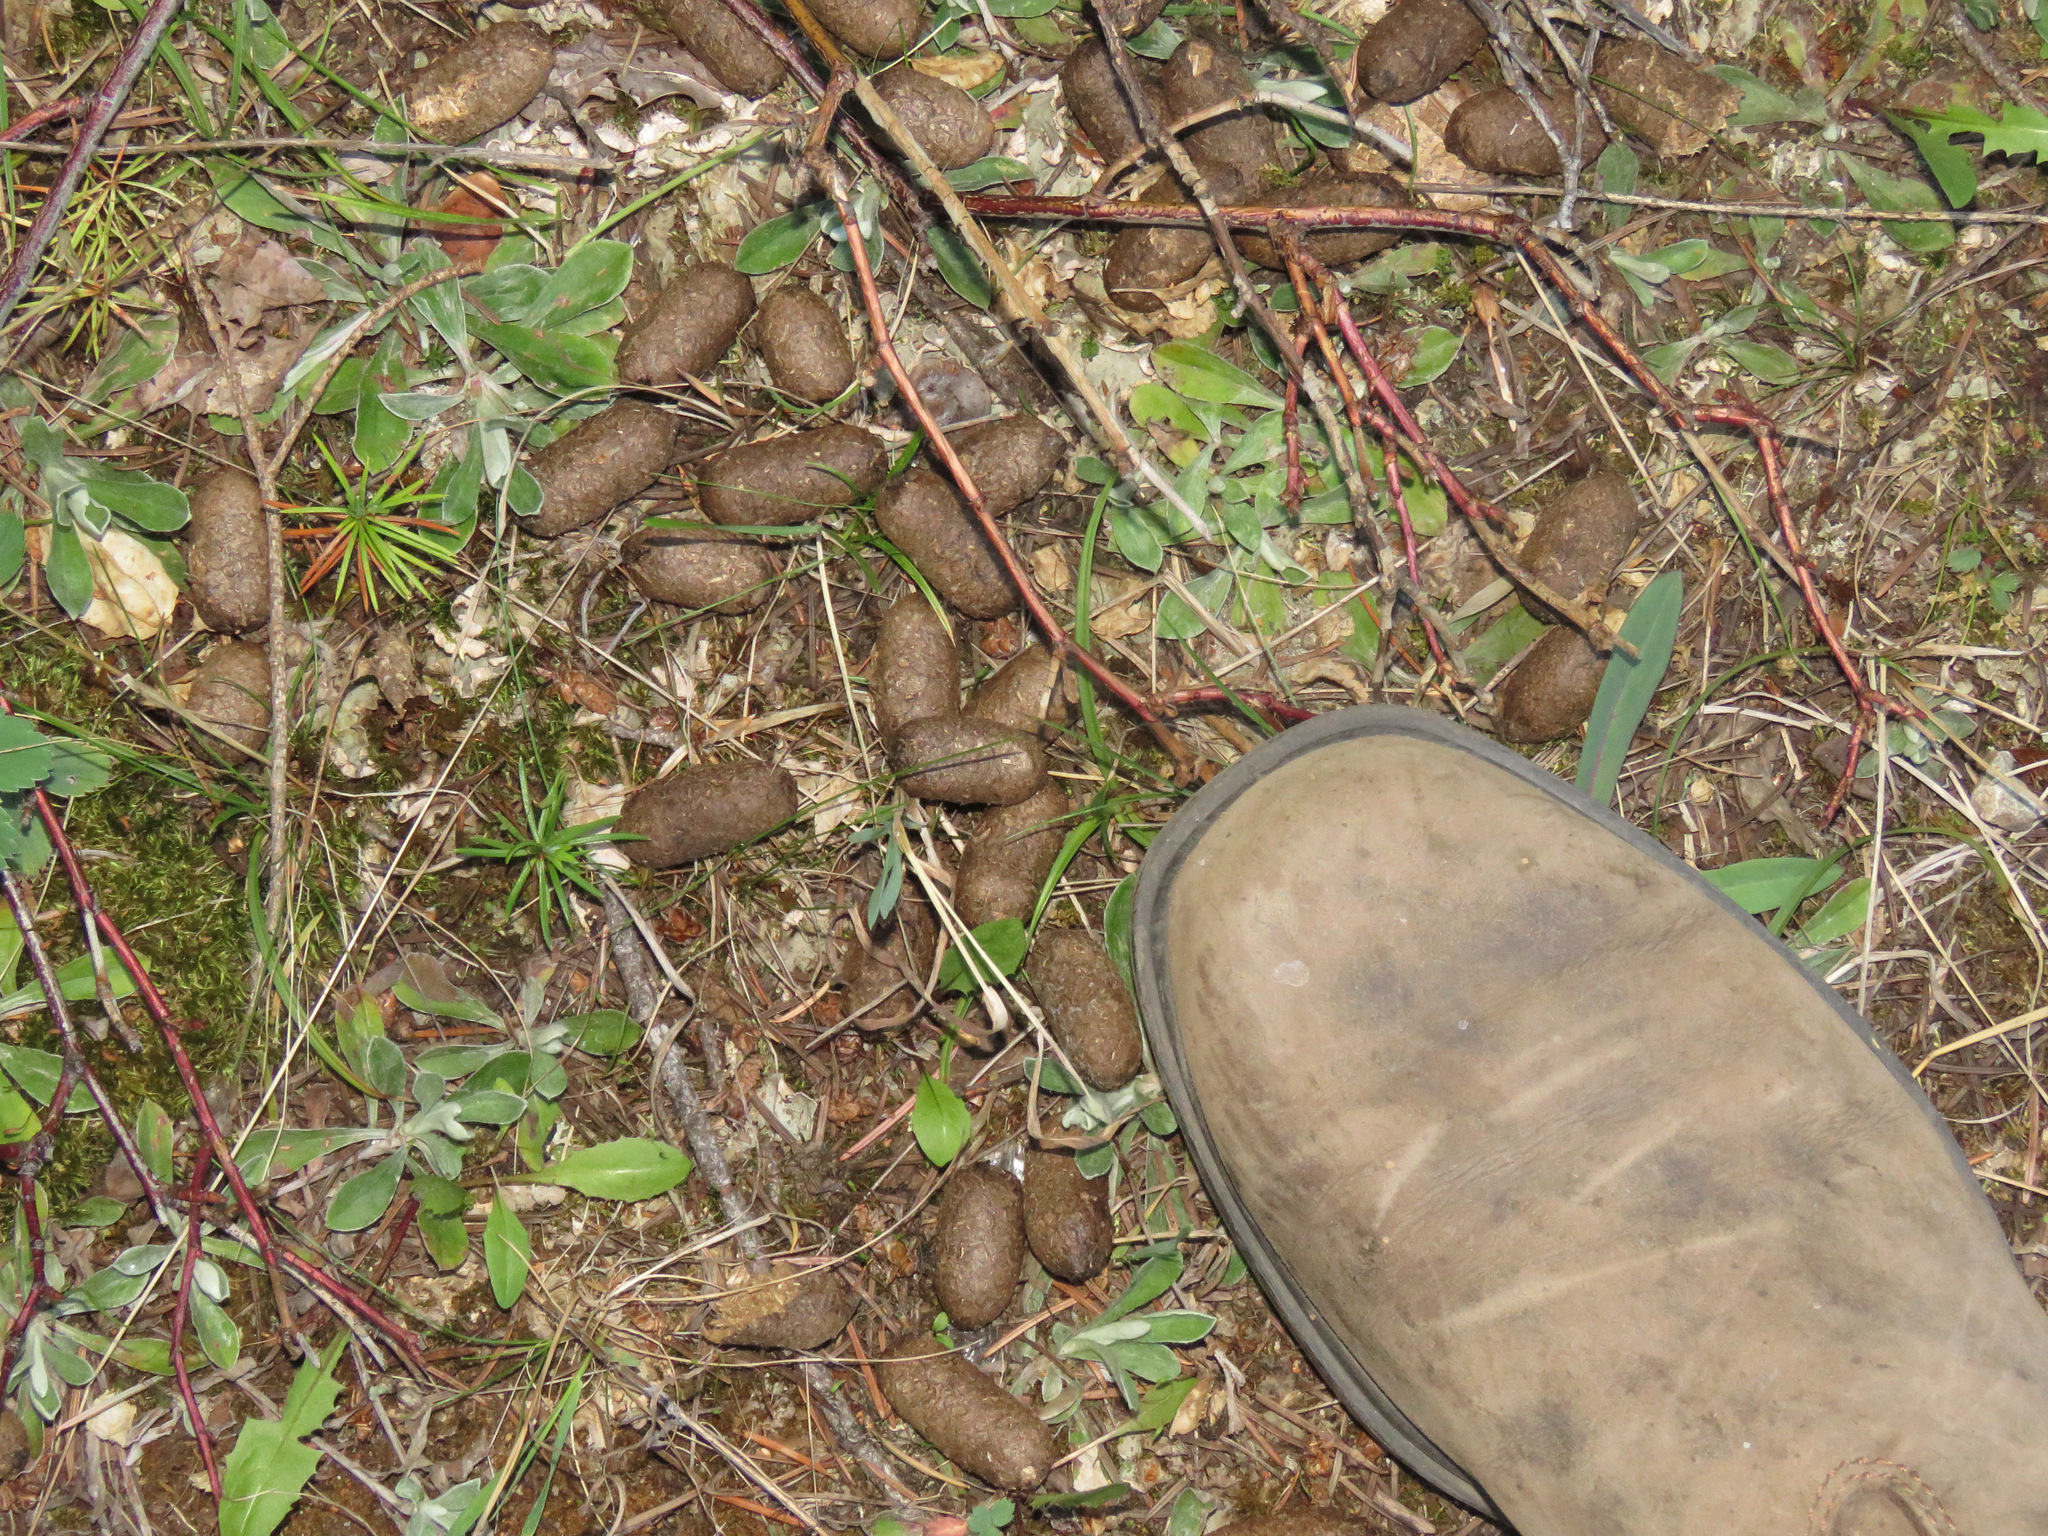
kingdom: Animalia
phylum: Chordata
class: Mammalia
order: Artiodactyla
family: Cervidae
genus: Alces
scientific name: Alces alces
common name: Moose
